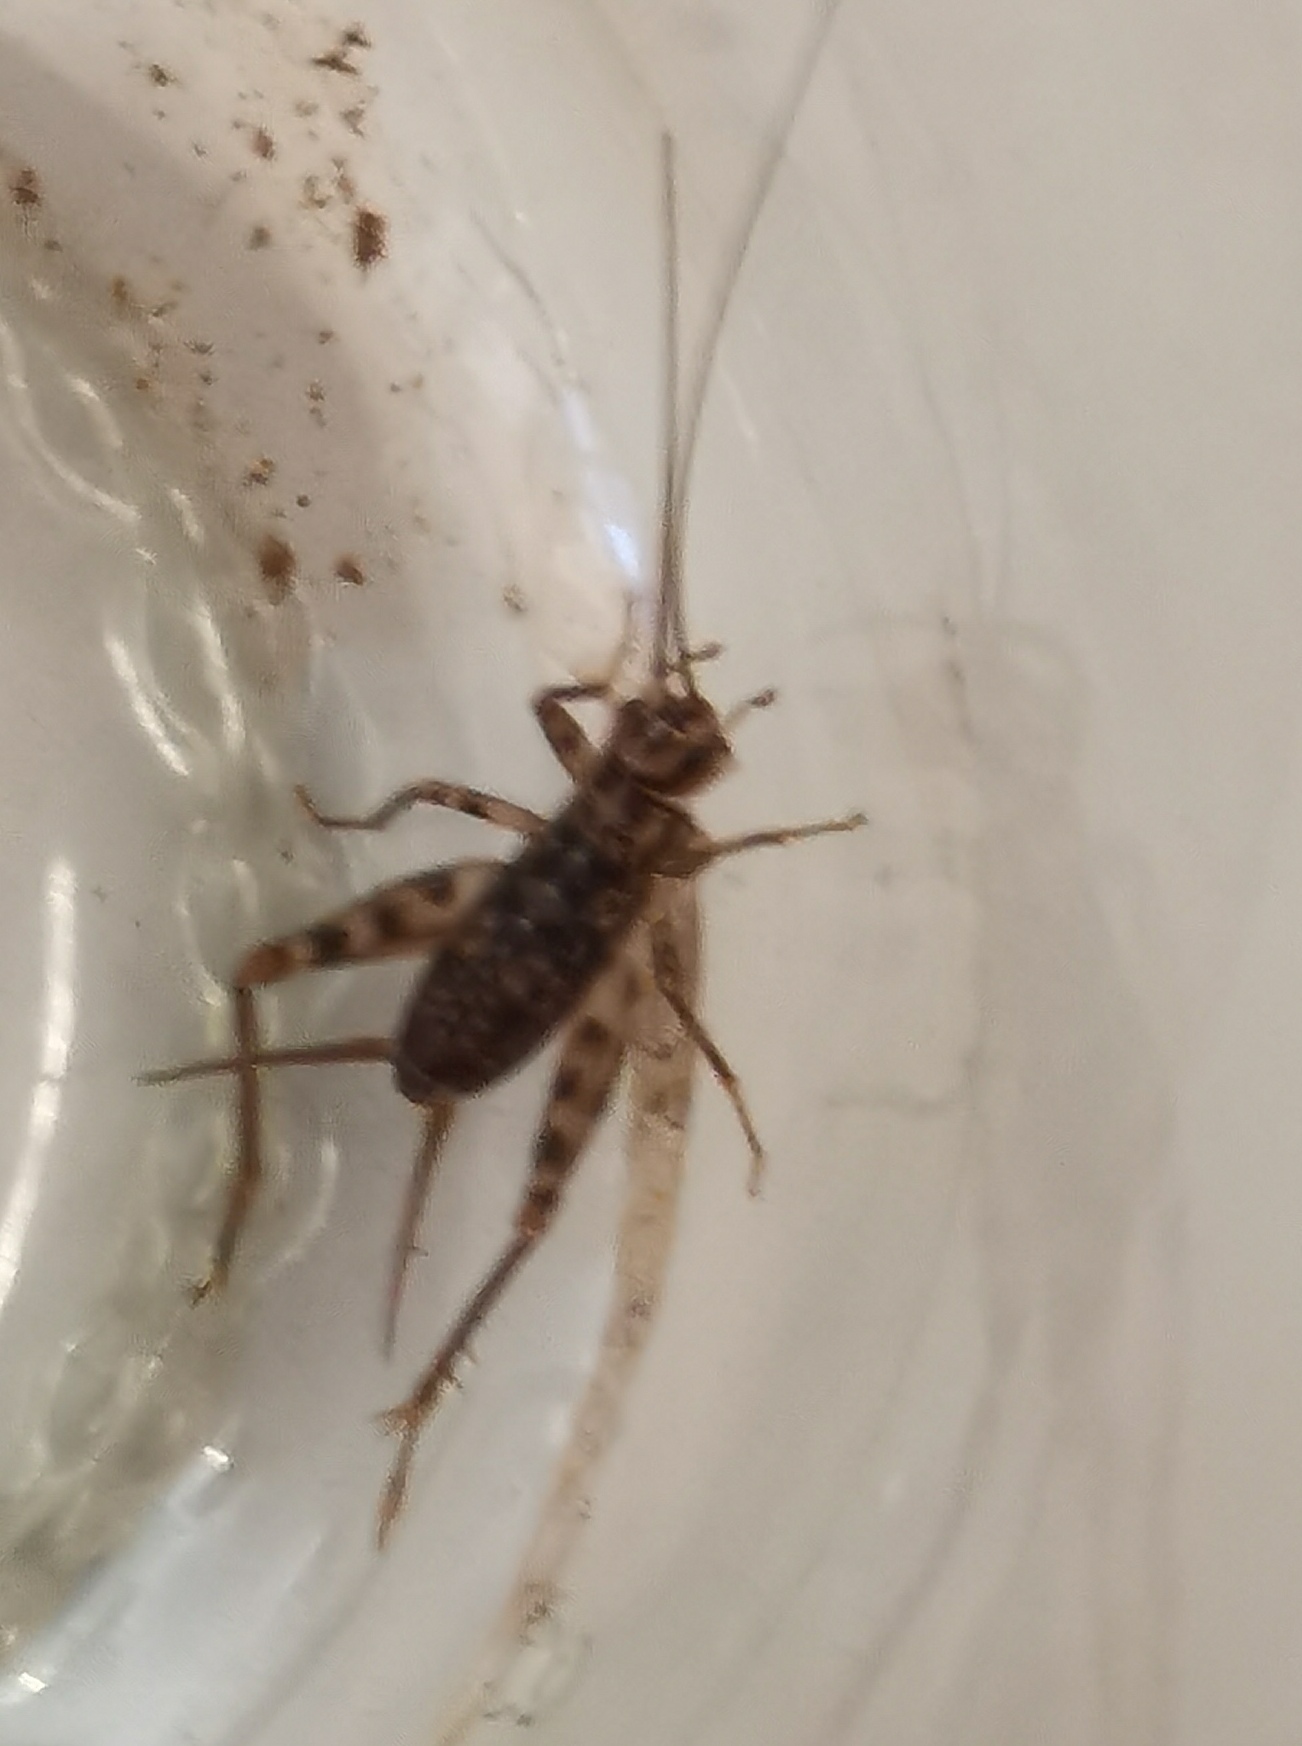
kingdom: Animalia
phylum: Arthropoda
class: Insecta
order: Orthoptera
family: Gryllidae
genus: Gryllomorpha
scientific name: Gryllomorpha dalmatina
